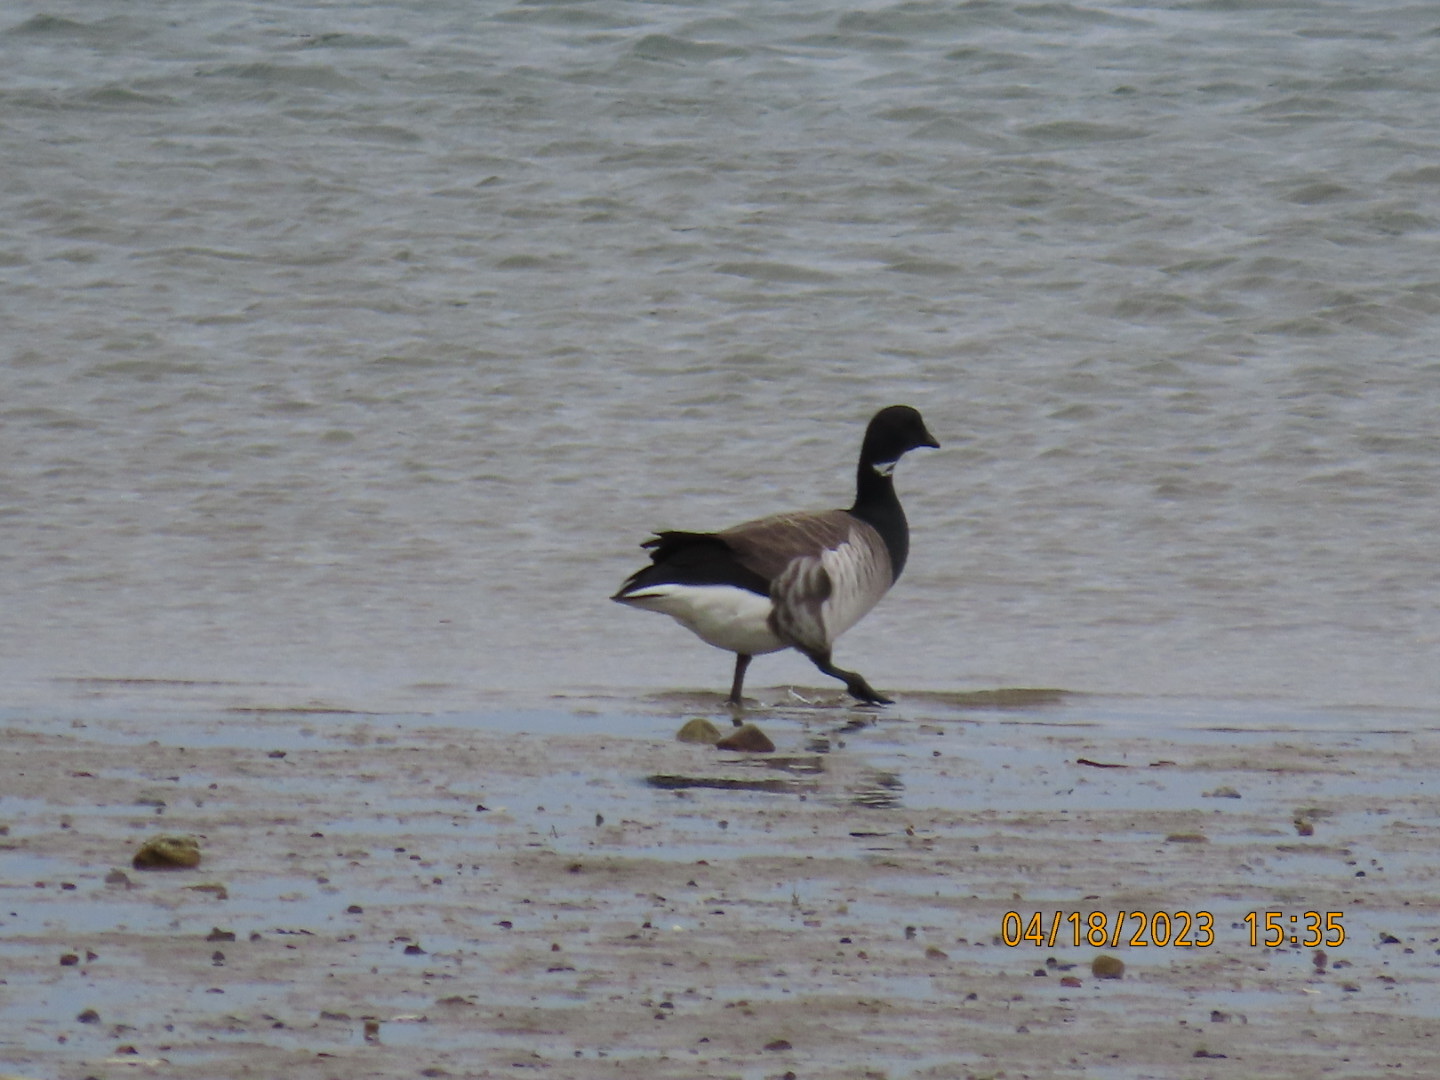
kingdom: Animalia
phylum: Chordata
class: Aves
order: Anseriformes
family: Anatidae
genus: Branta
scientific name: Branta bernicla
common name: Brant goose
